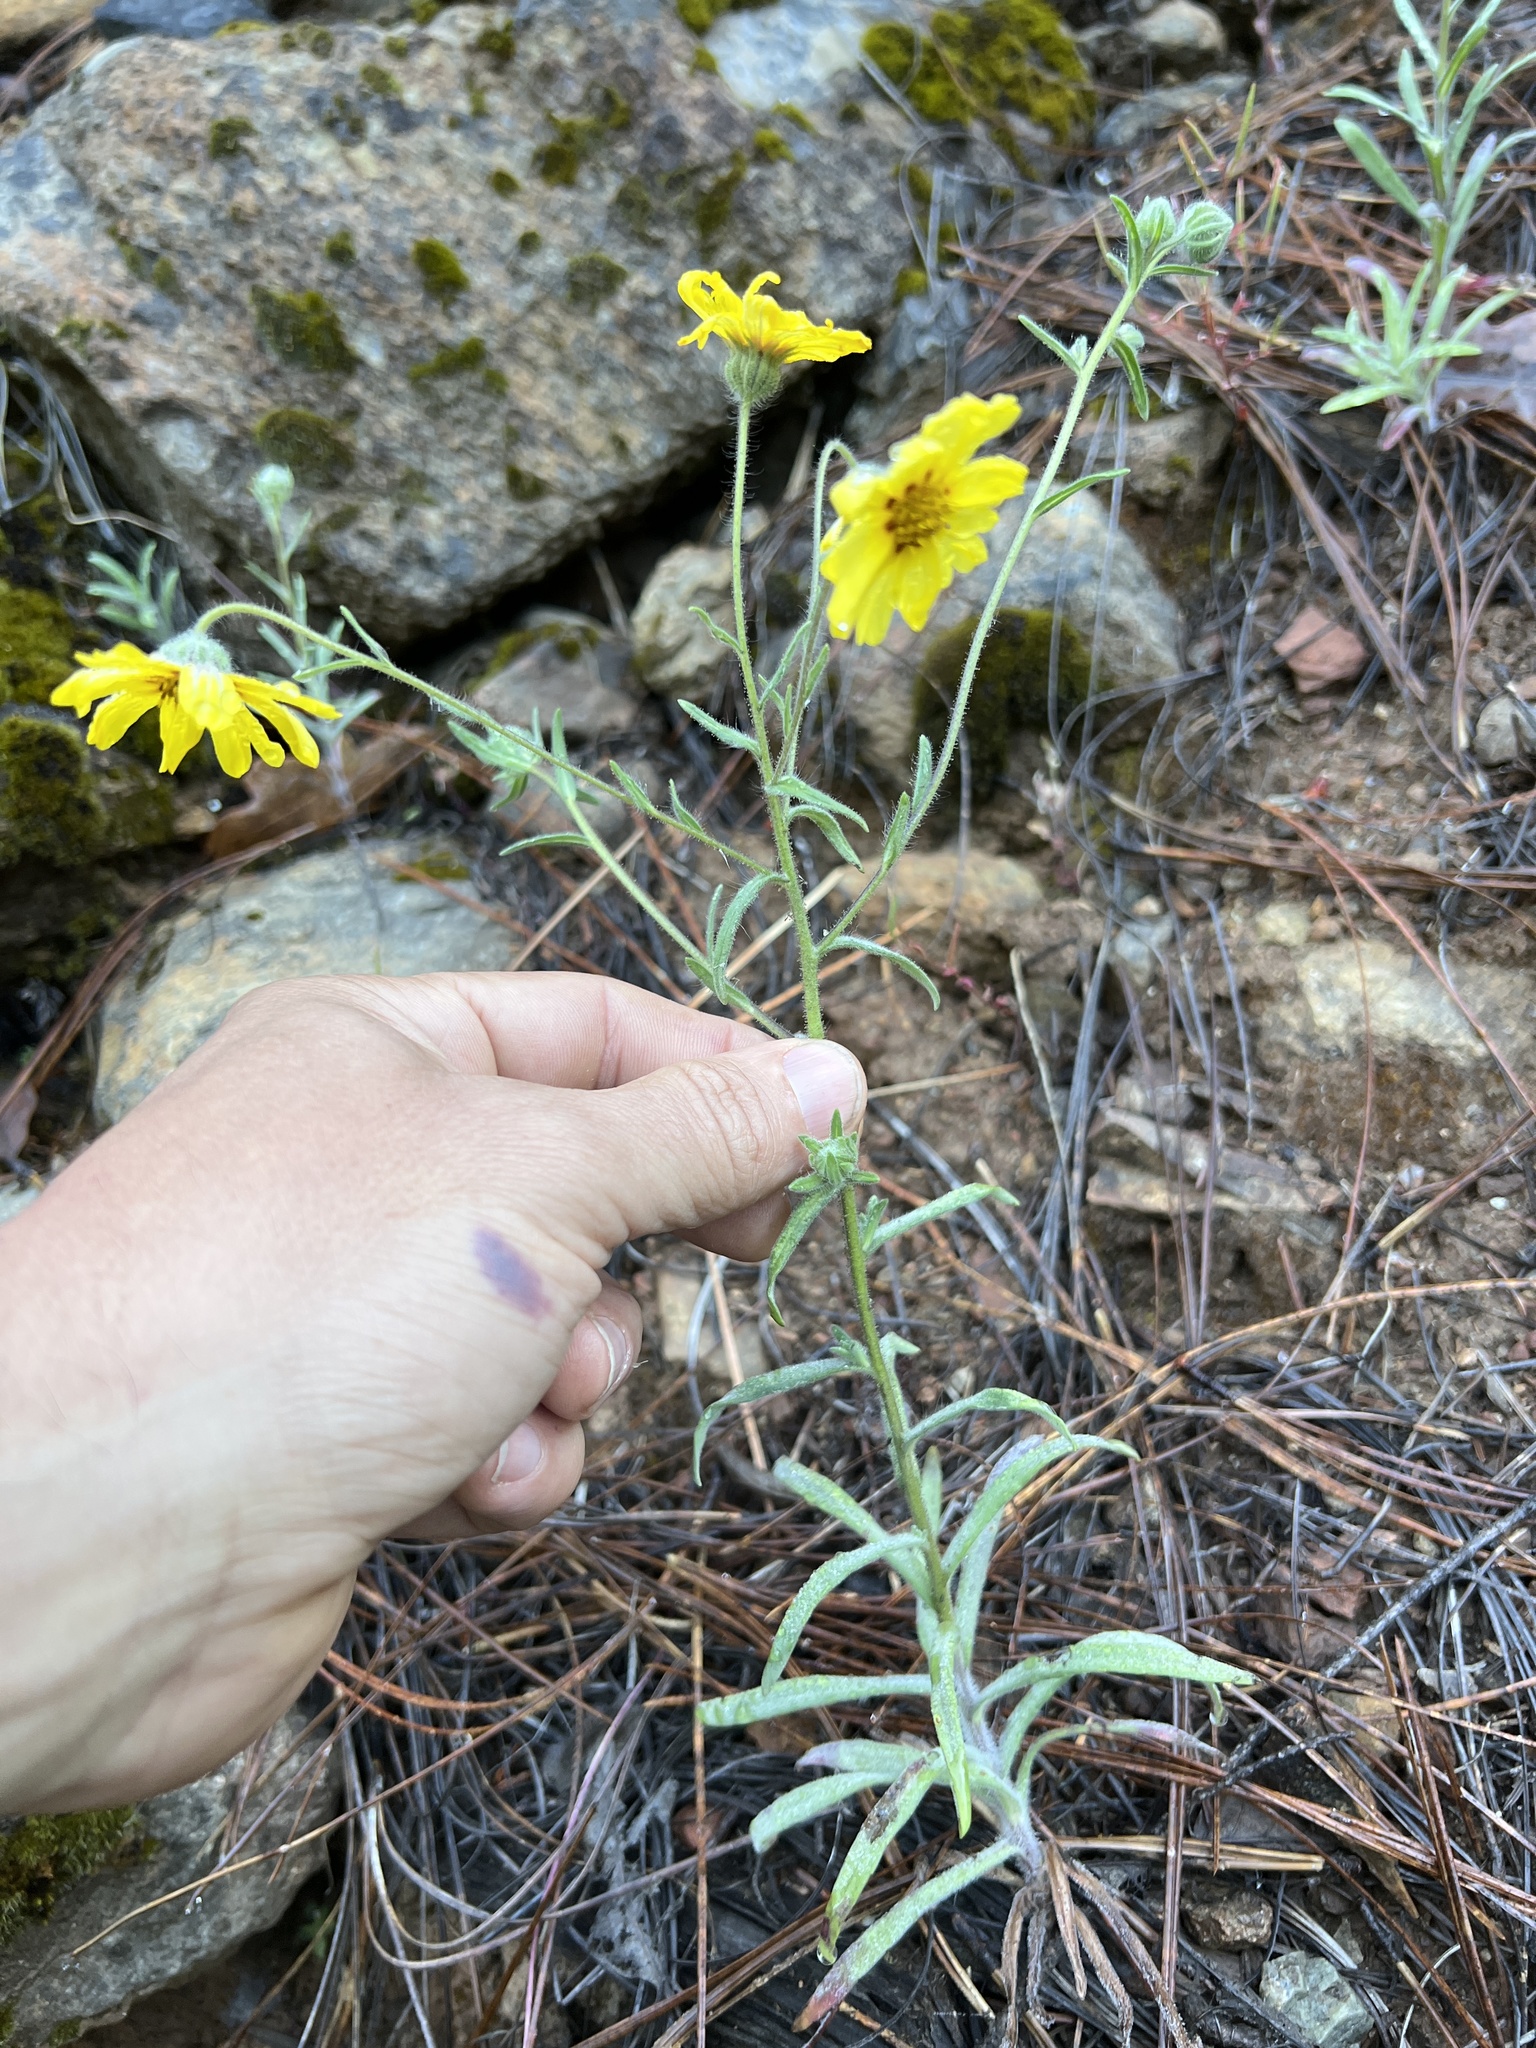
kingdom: Plantae
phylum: Tracheophyta
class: Magnoliopsida
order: Asterales
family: Asteraceae
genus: Madia
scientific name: Madia elegans
